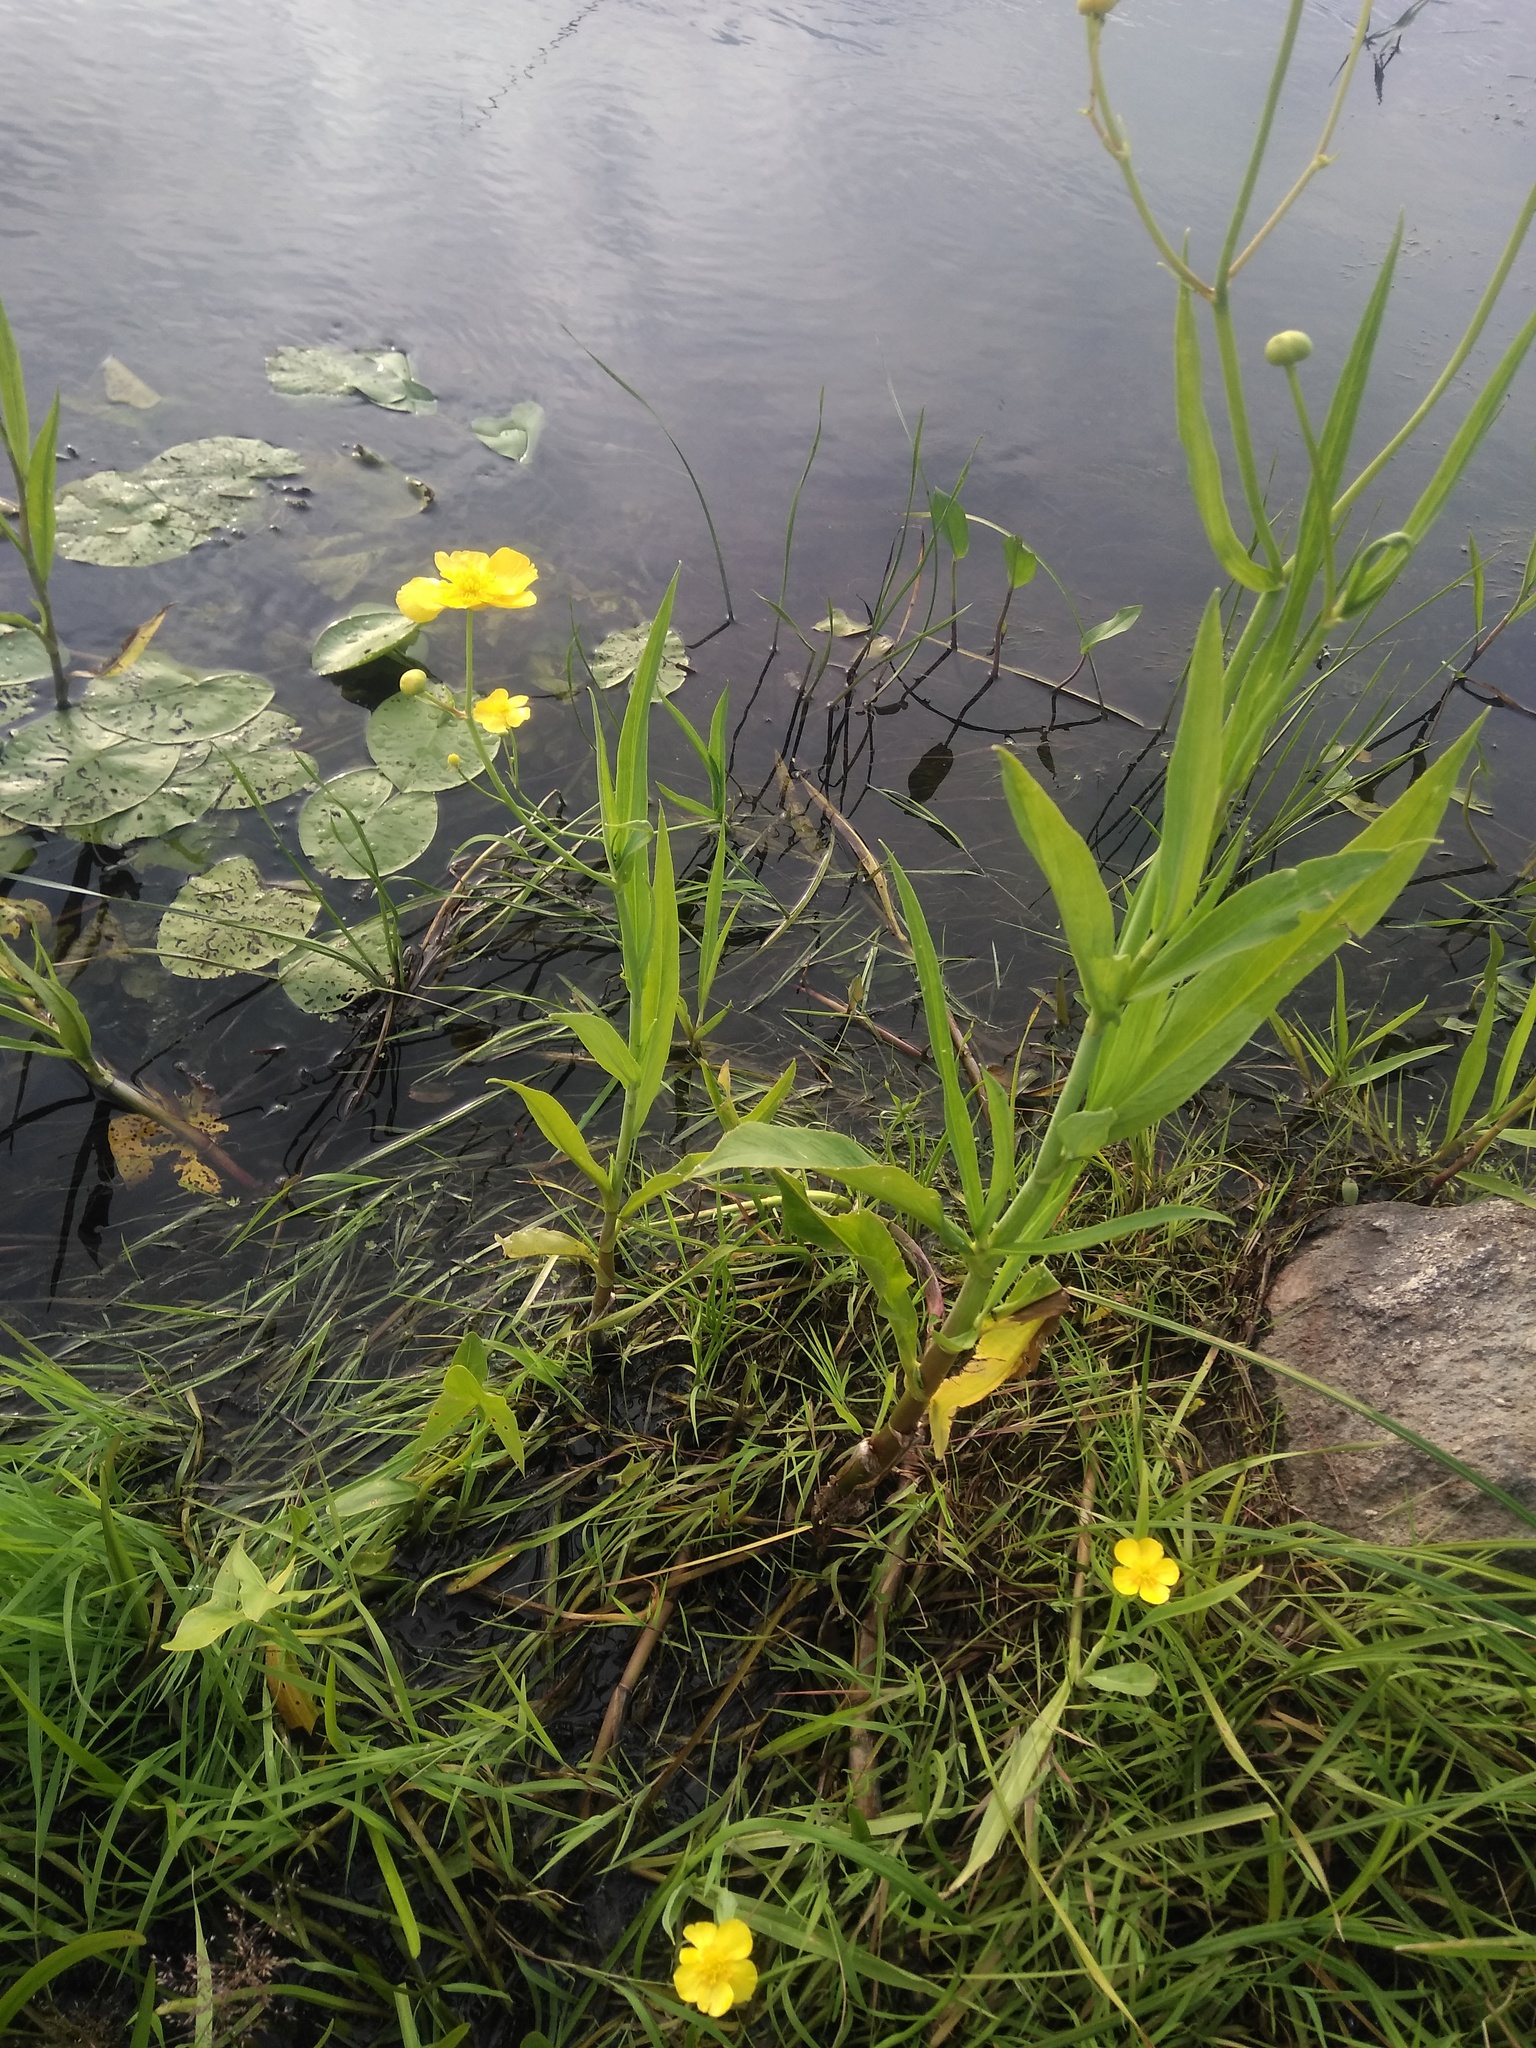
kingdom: Plantae
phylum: Tracheophyta
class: Magnoliopsida
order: Ranunculales
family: Ranunculaceae
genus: Ranunculus
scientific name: Ranunculus lingua
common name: Greater spearwort
